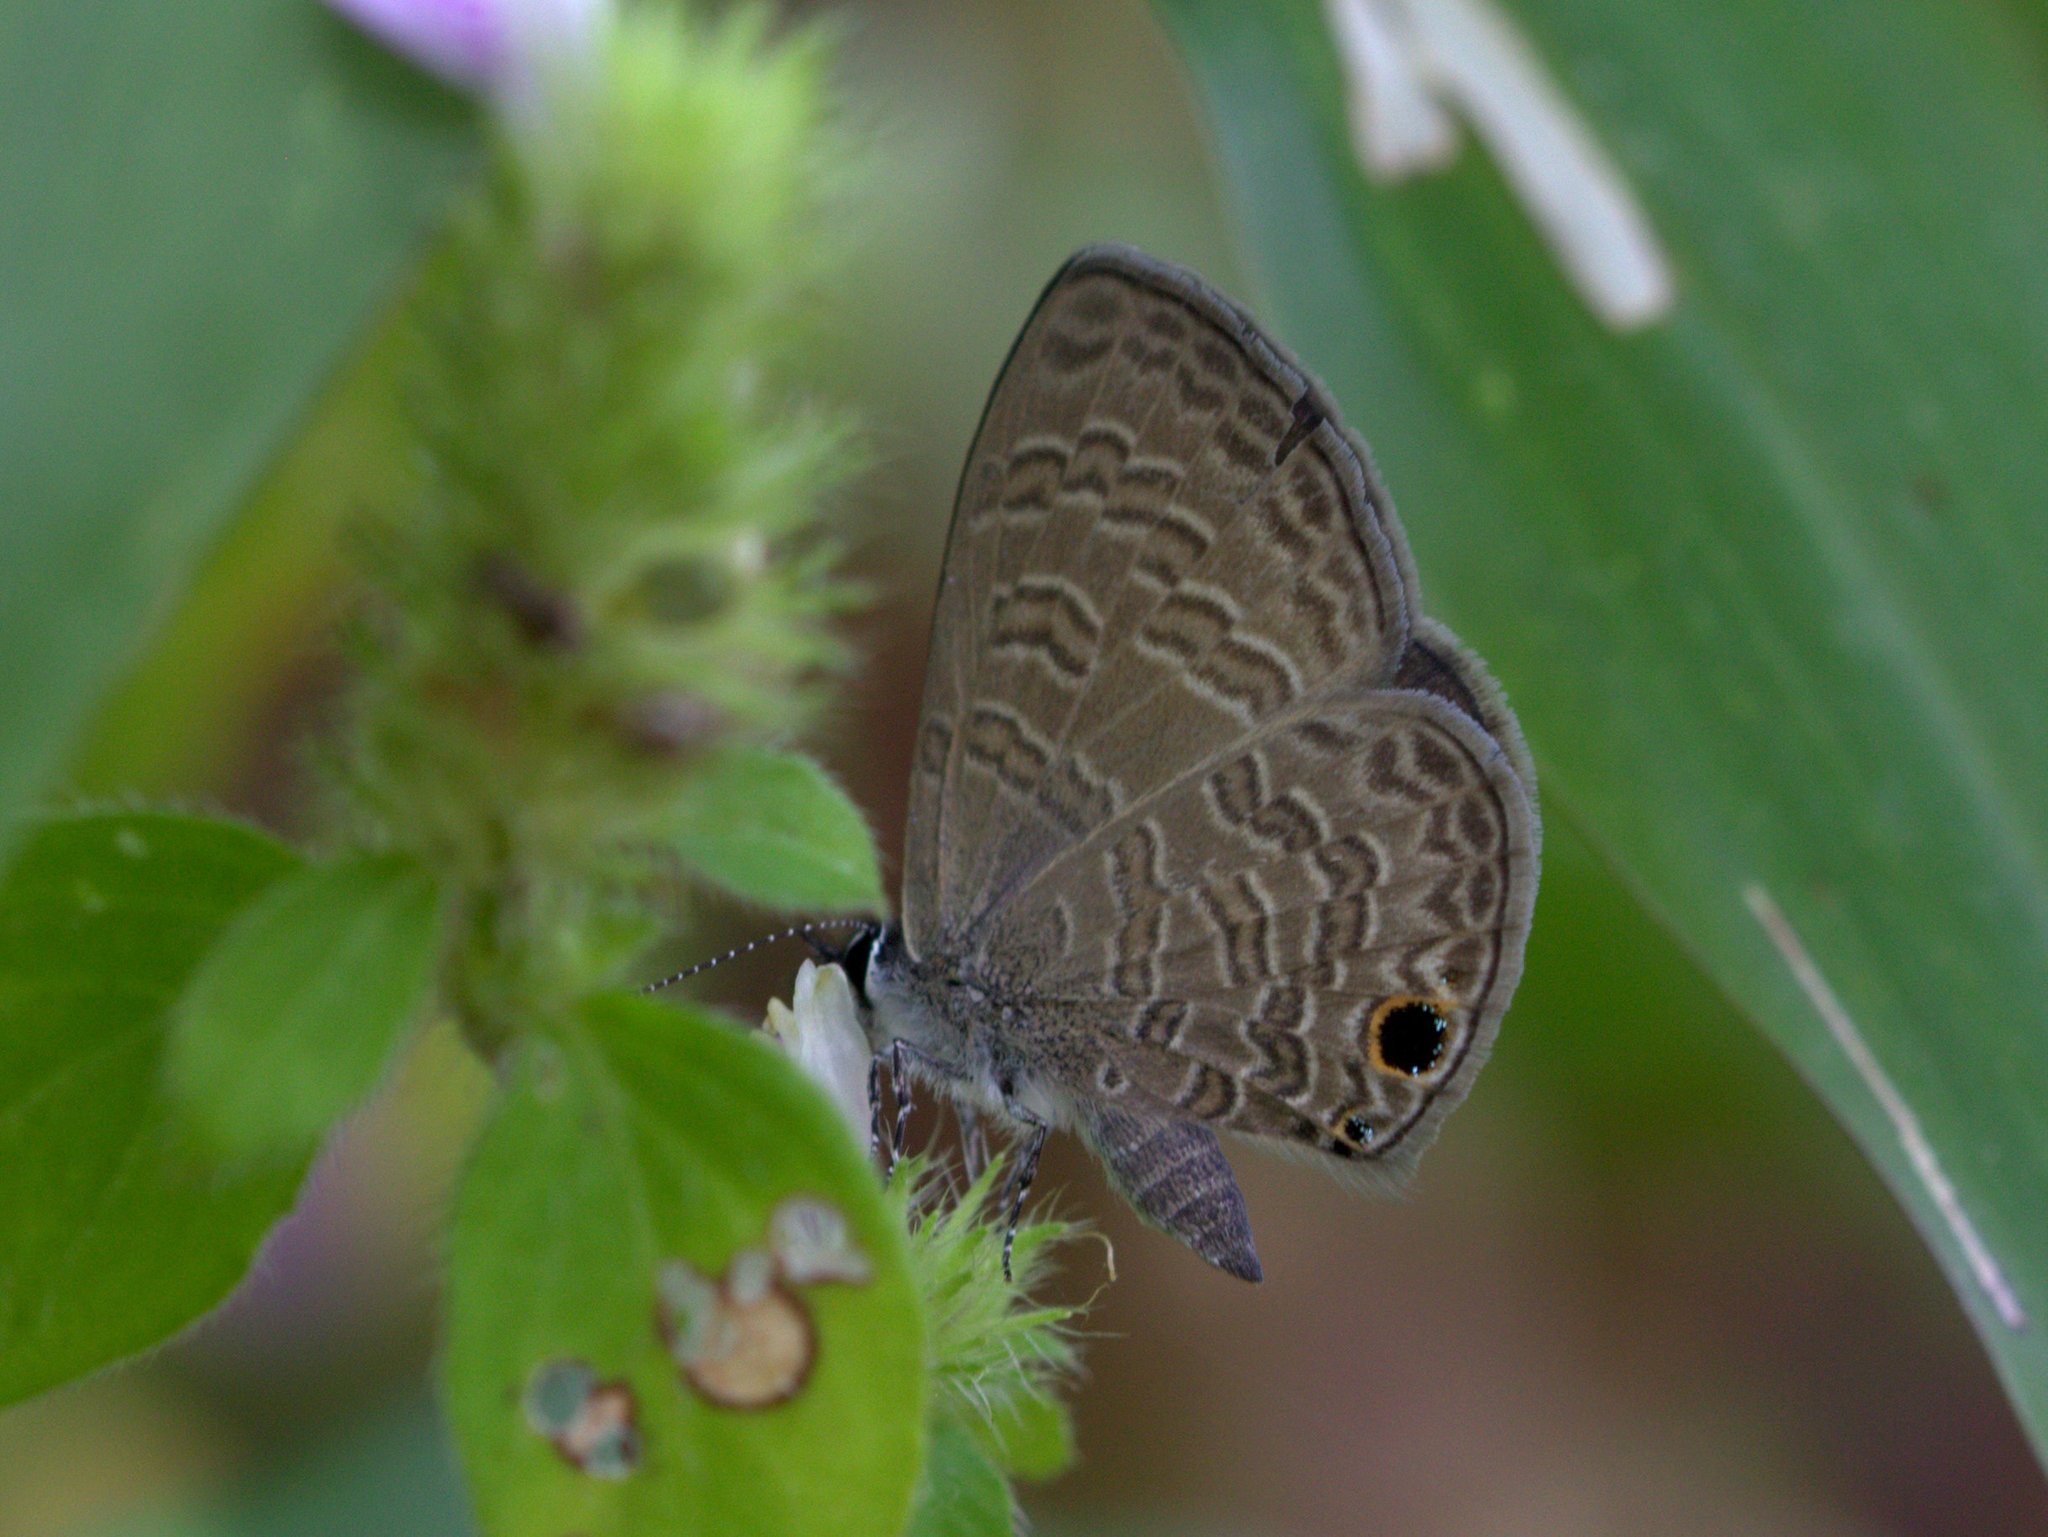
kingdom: Animalia
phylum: Arthropoda
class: Insecta
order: Lepidoptera
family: Lycaenidae
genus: Prosotas
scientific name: Prosotas dubiosa
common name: Tailless lineblue
